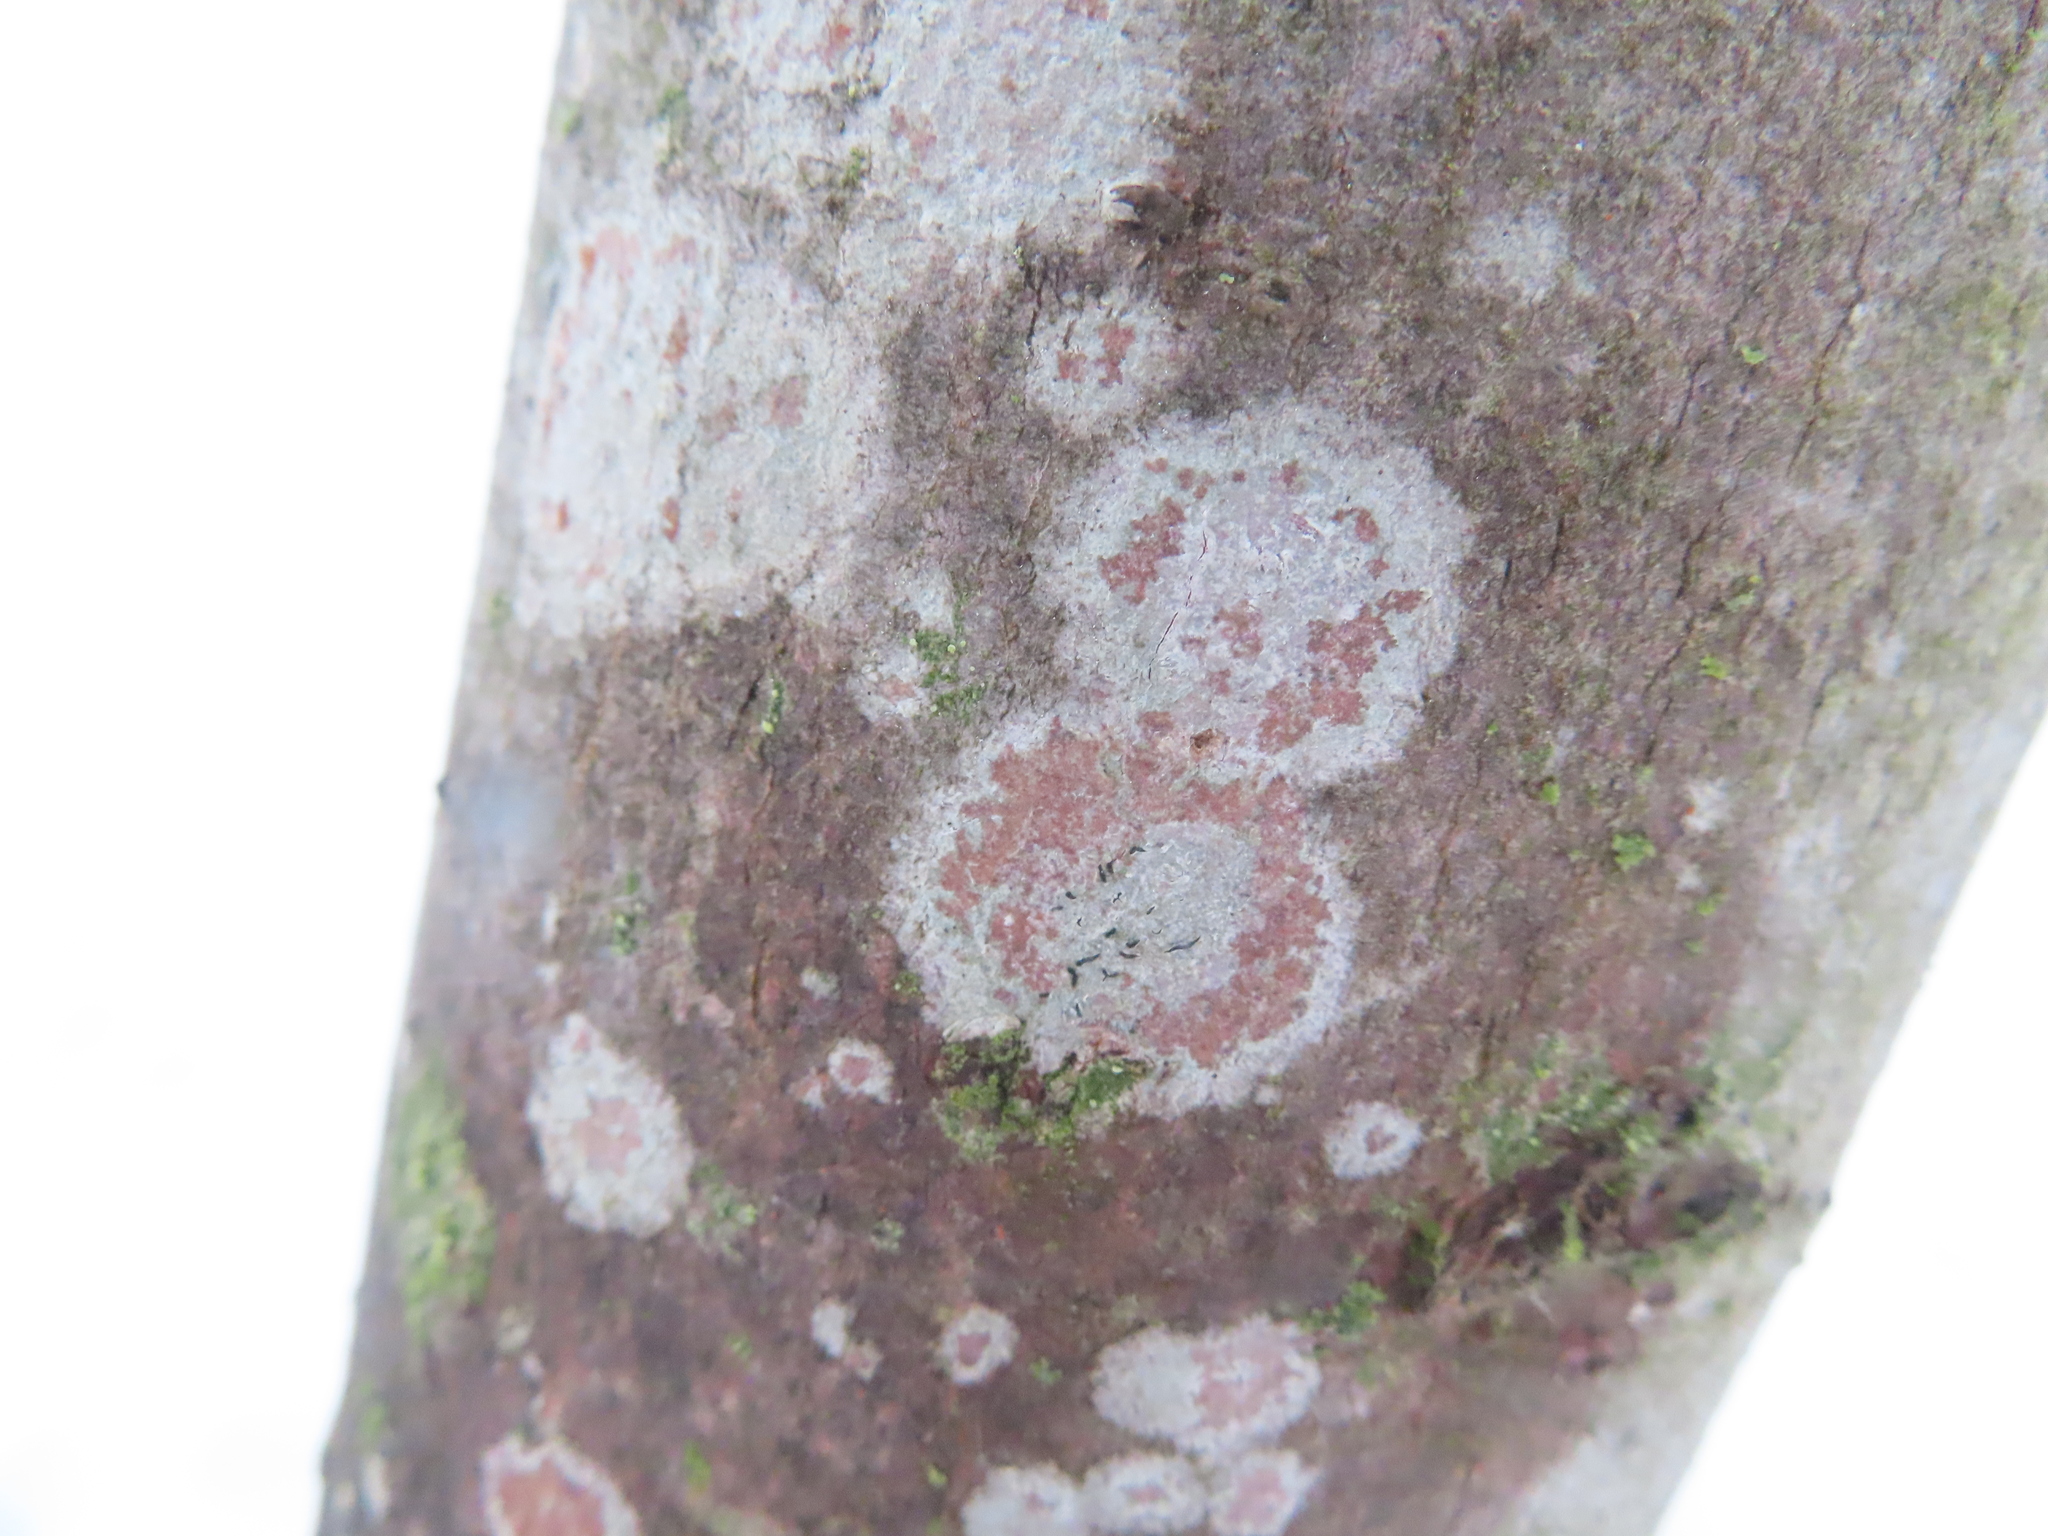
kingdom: Fungi
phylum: Ascomycota
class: Lecanoromycetes
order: Ostropales
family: Graphidaceae
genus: Graphis
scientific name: Graphis scripta
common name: Script lichen
